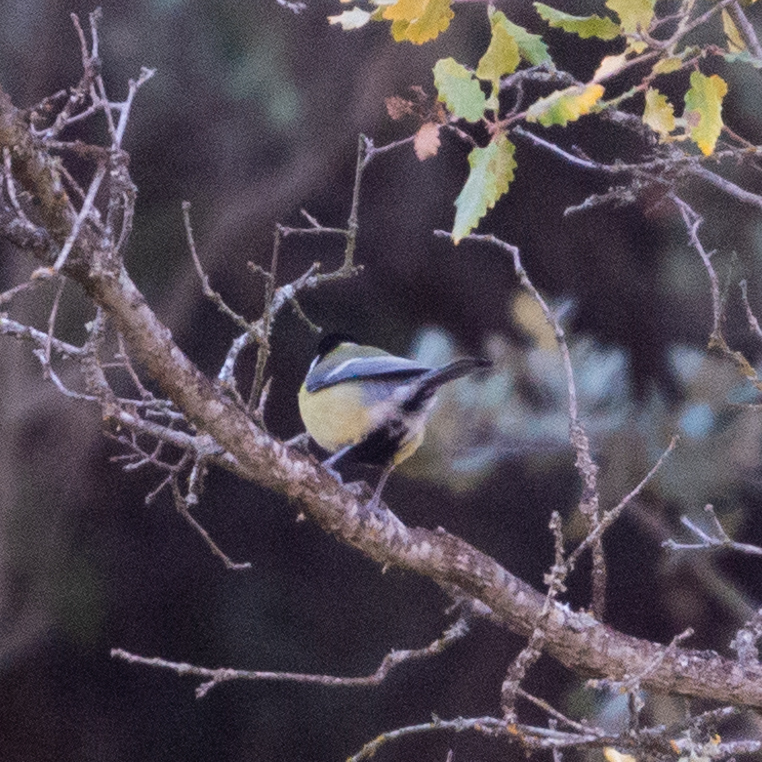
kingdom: Animalia
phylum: Chordata
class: Aves
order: Passeriformes
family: Paridae
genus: Parus
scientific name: Parus major
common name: Great tit
